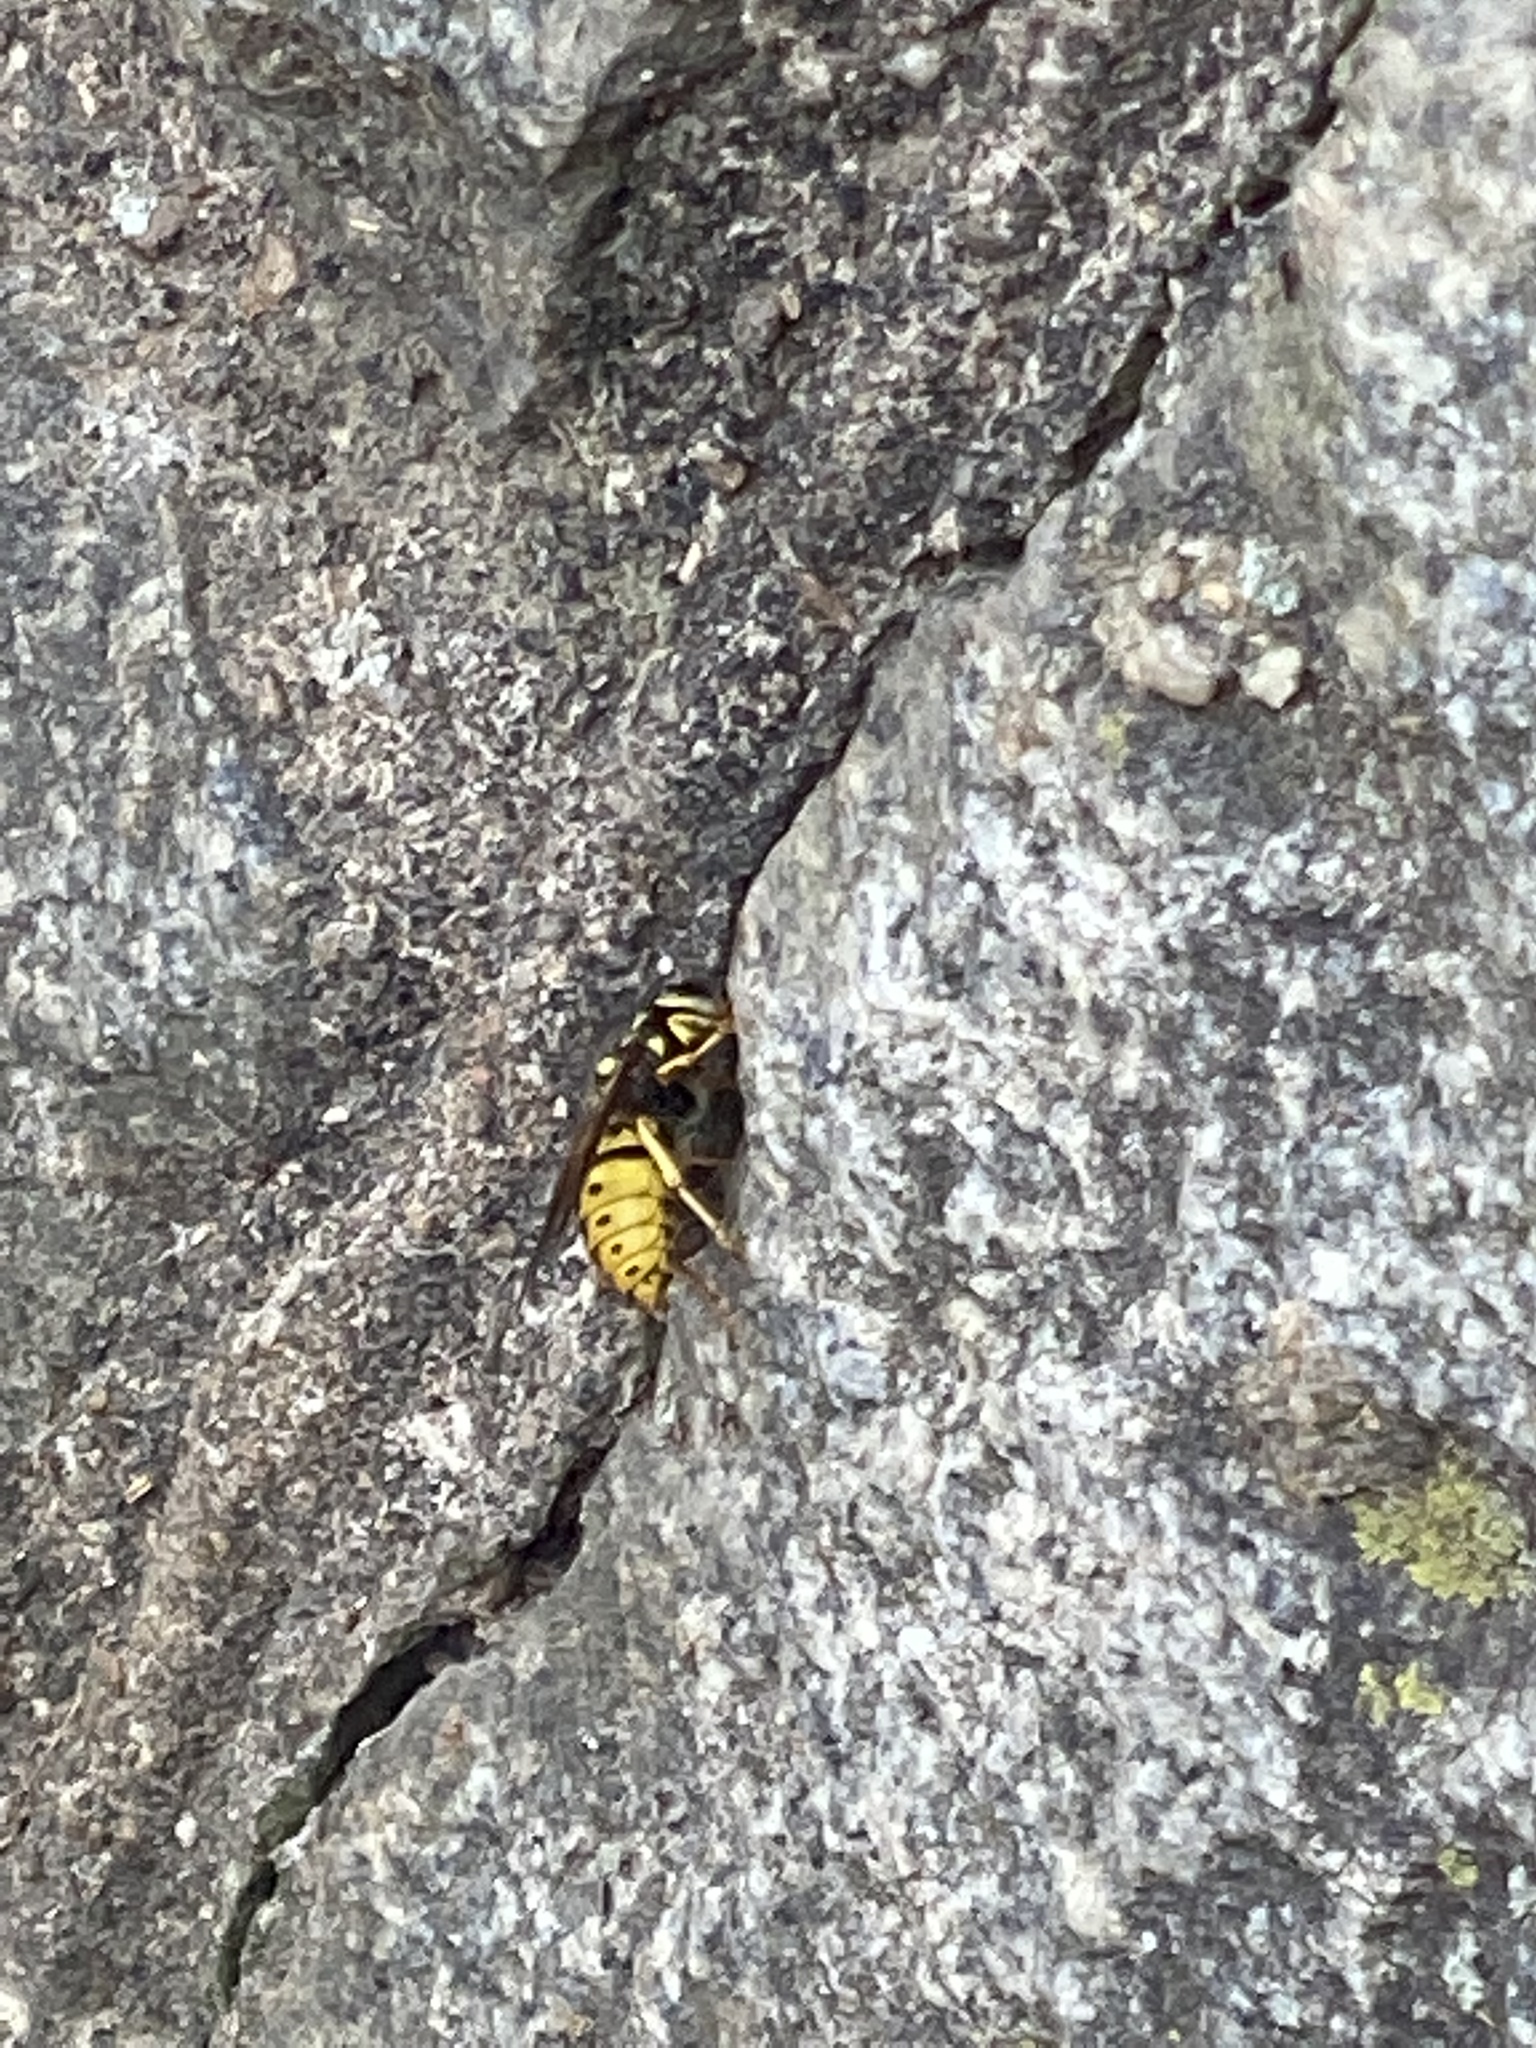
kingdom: Animalia
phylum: Arthropoda
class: Insecta
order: Hymenoptera
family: Vespidae
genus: Vespula
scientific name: Vespula germanica
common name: German wasp
